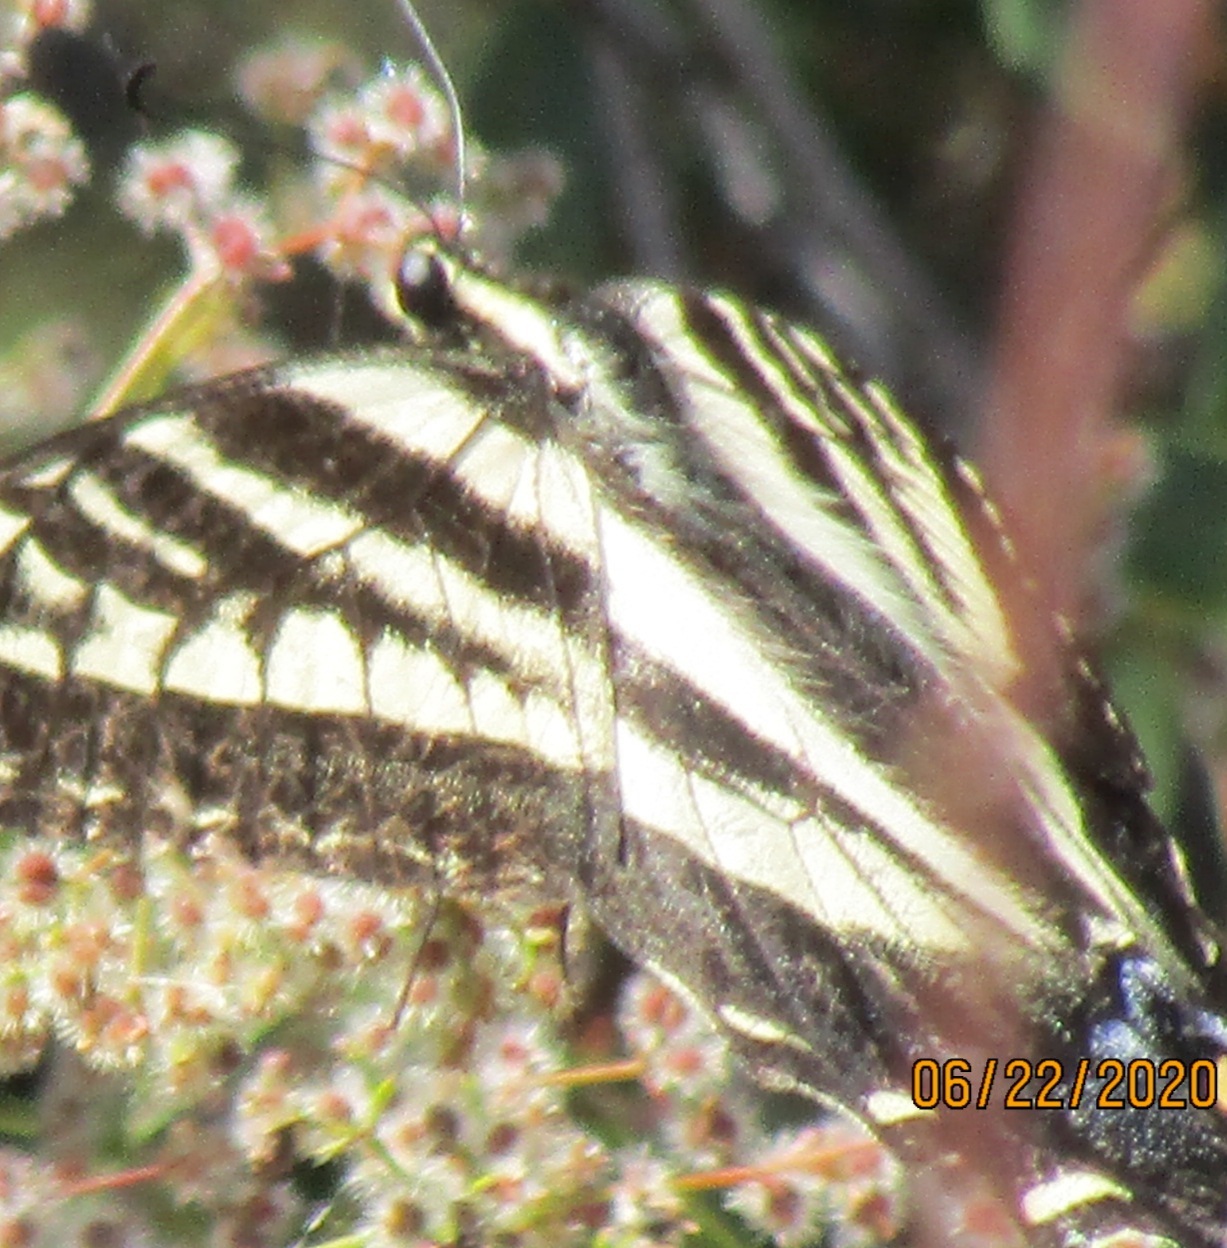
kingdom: Animalia
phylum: Arthropoda
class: Insecta
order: Lepidoptera
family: Papilionidae
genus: Papilio
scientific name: Papilio eurymedon
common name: Pale tiger swallowtail
